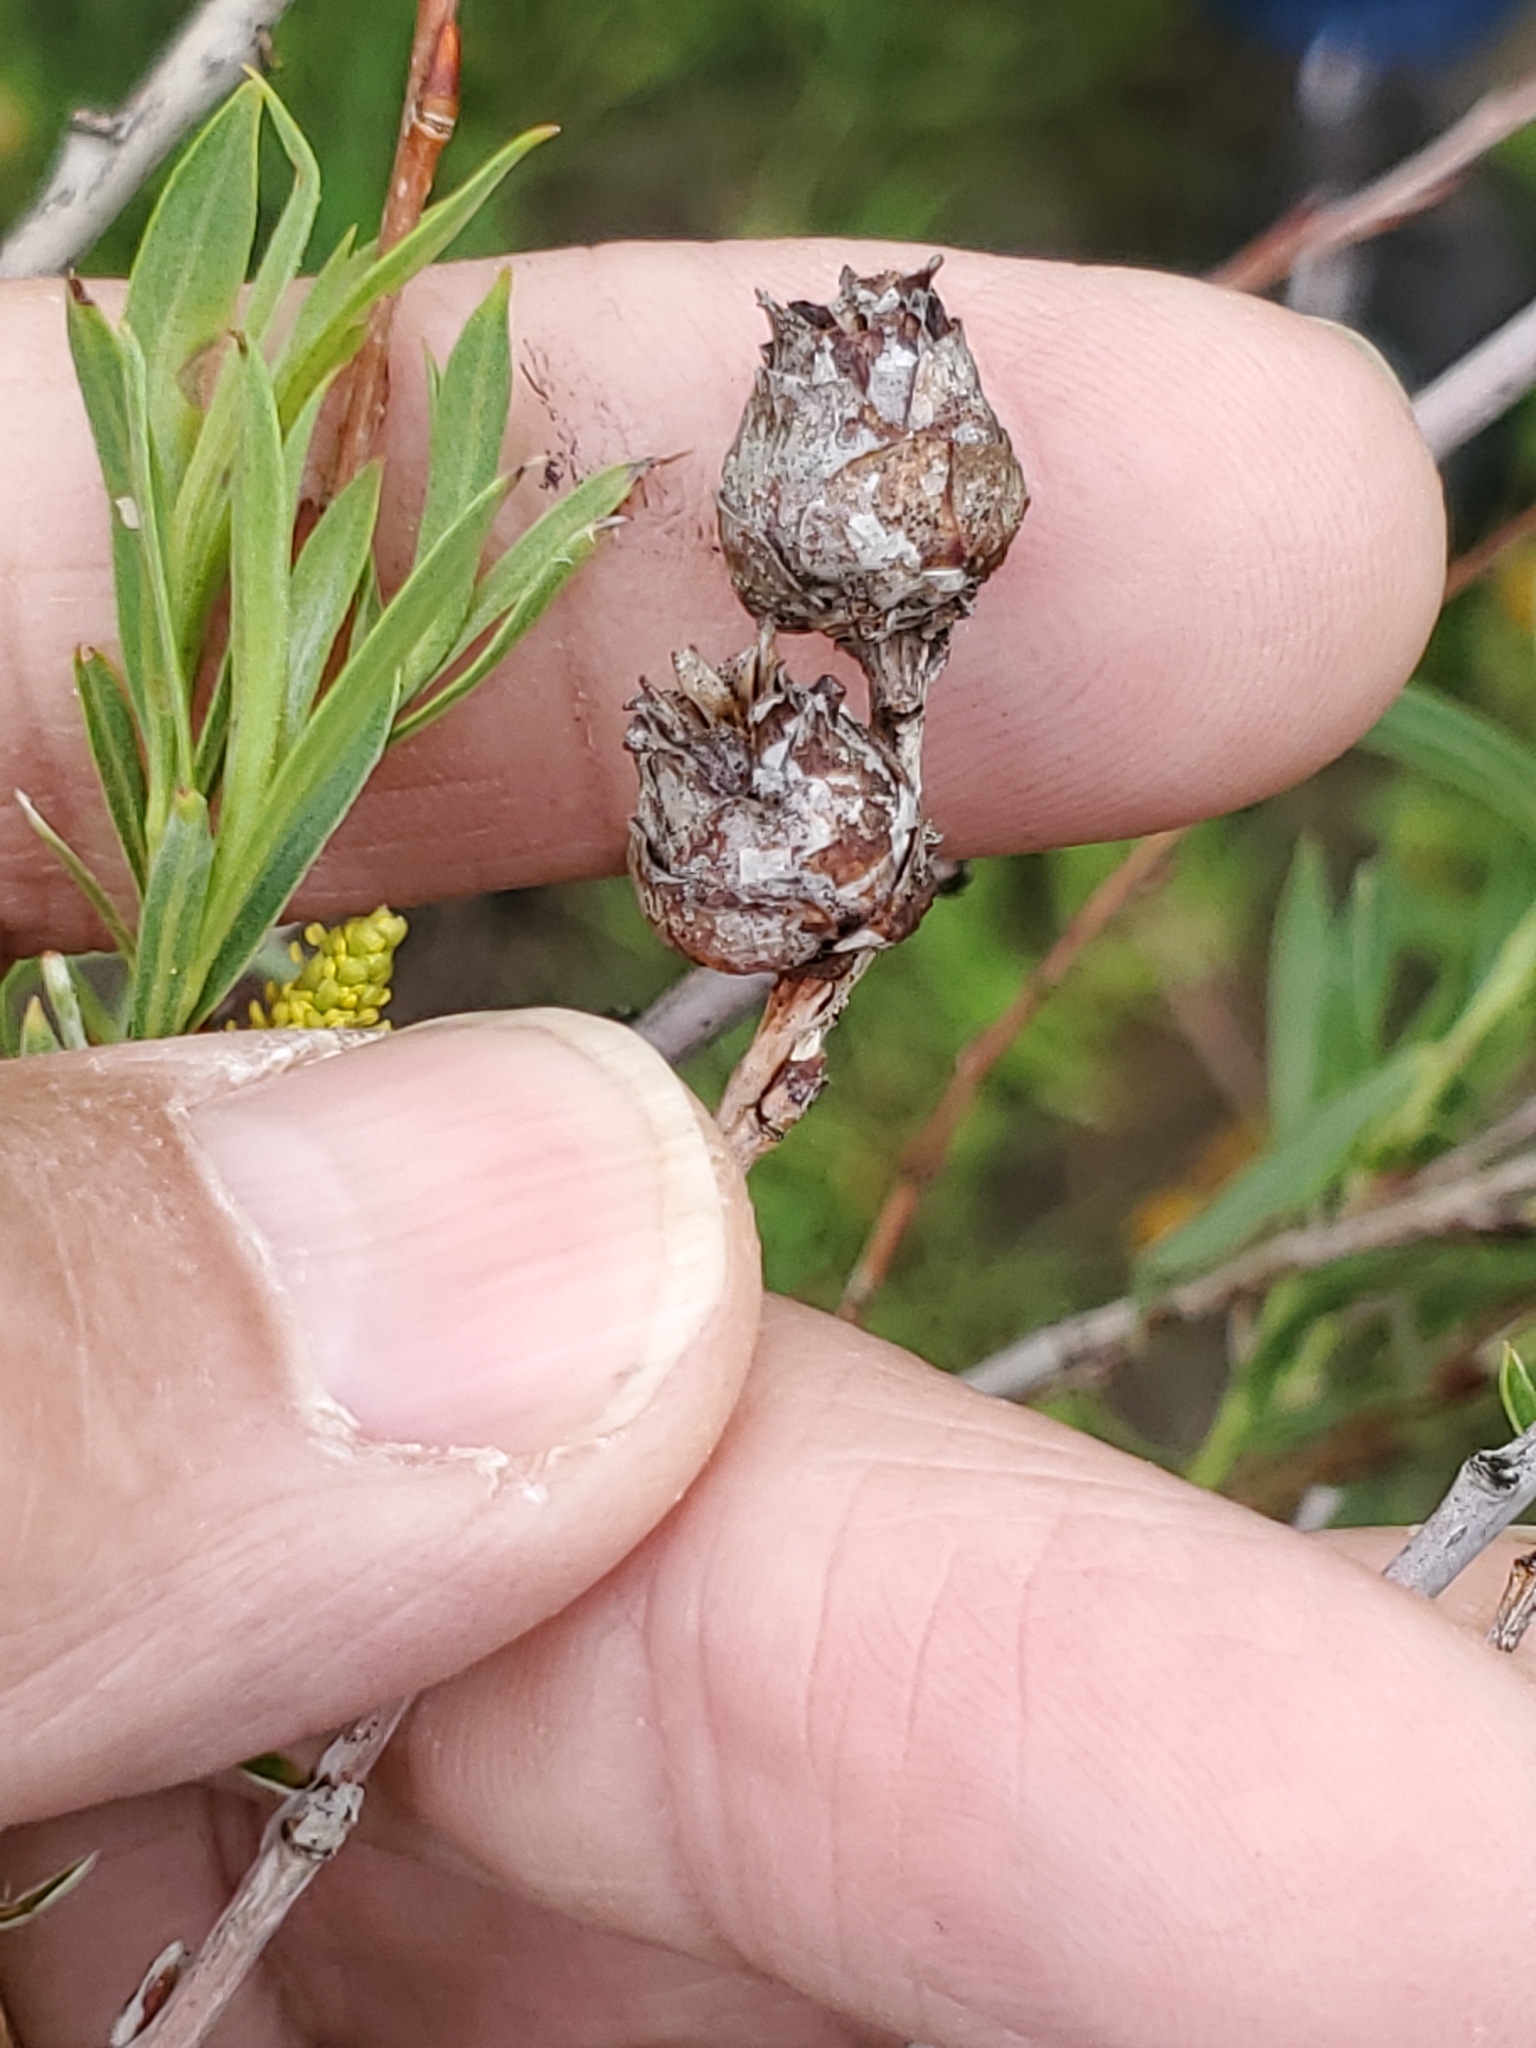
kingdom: Animalia
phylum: Arthropoda
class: Insecta
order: Diptera
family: Cecidomyiidae
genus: Rabdophaga
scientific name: Rabdophaga strobiloides
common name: Willow pinecone gall midge
